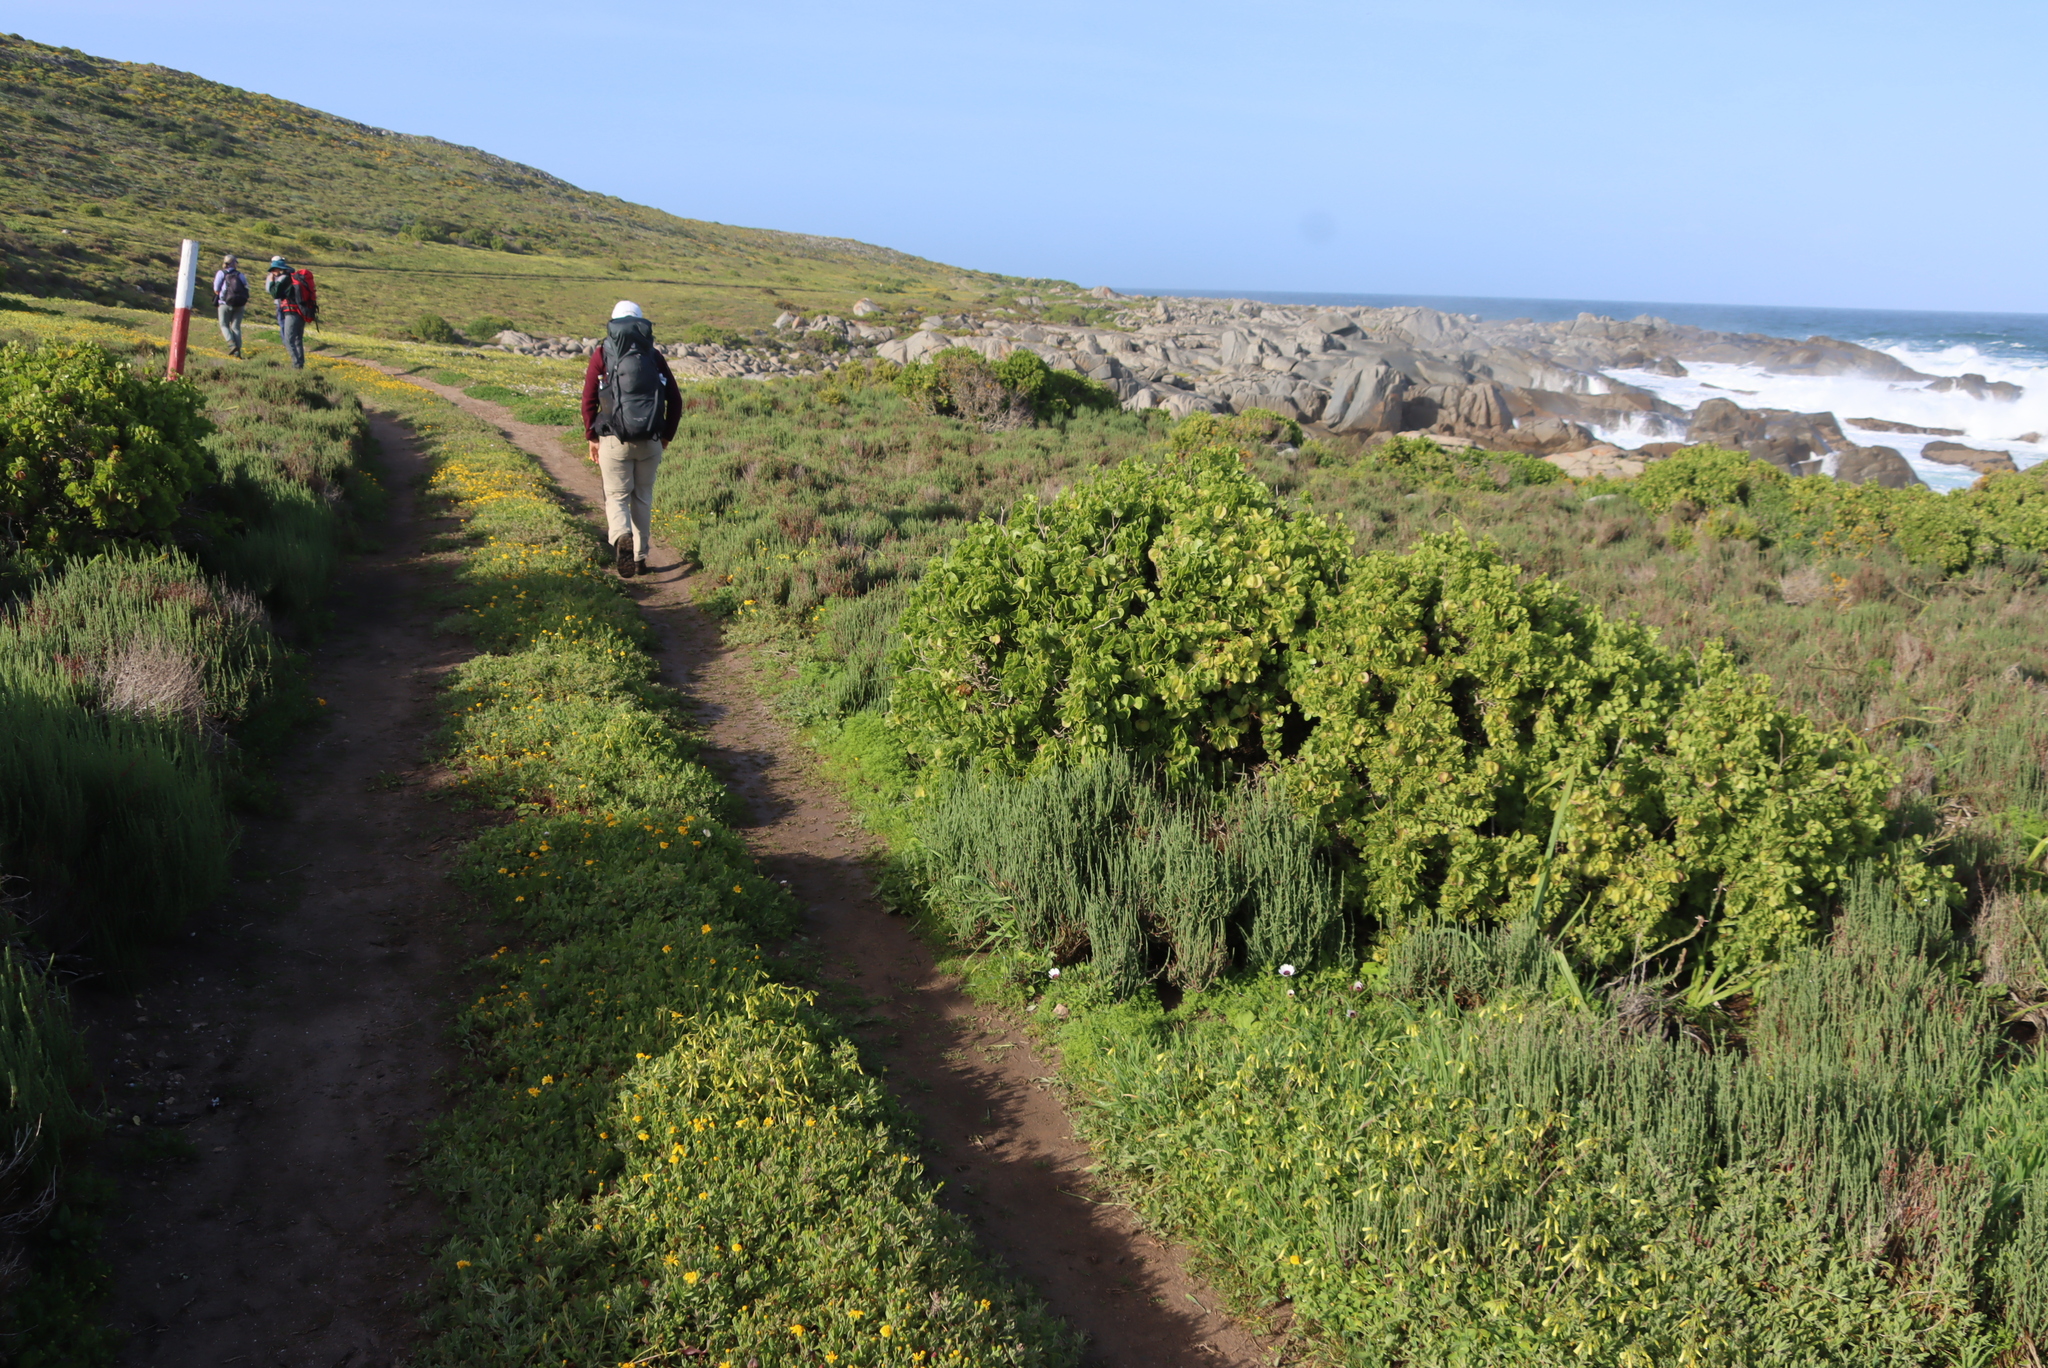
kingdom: Plantae
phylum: Tracheophyta
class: Magnoliopsida
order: Zygophyllales
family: Zygophyllaceae
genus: Roepera
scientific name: Roepera morgsana
